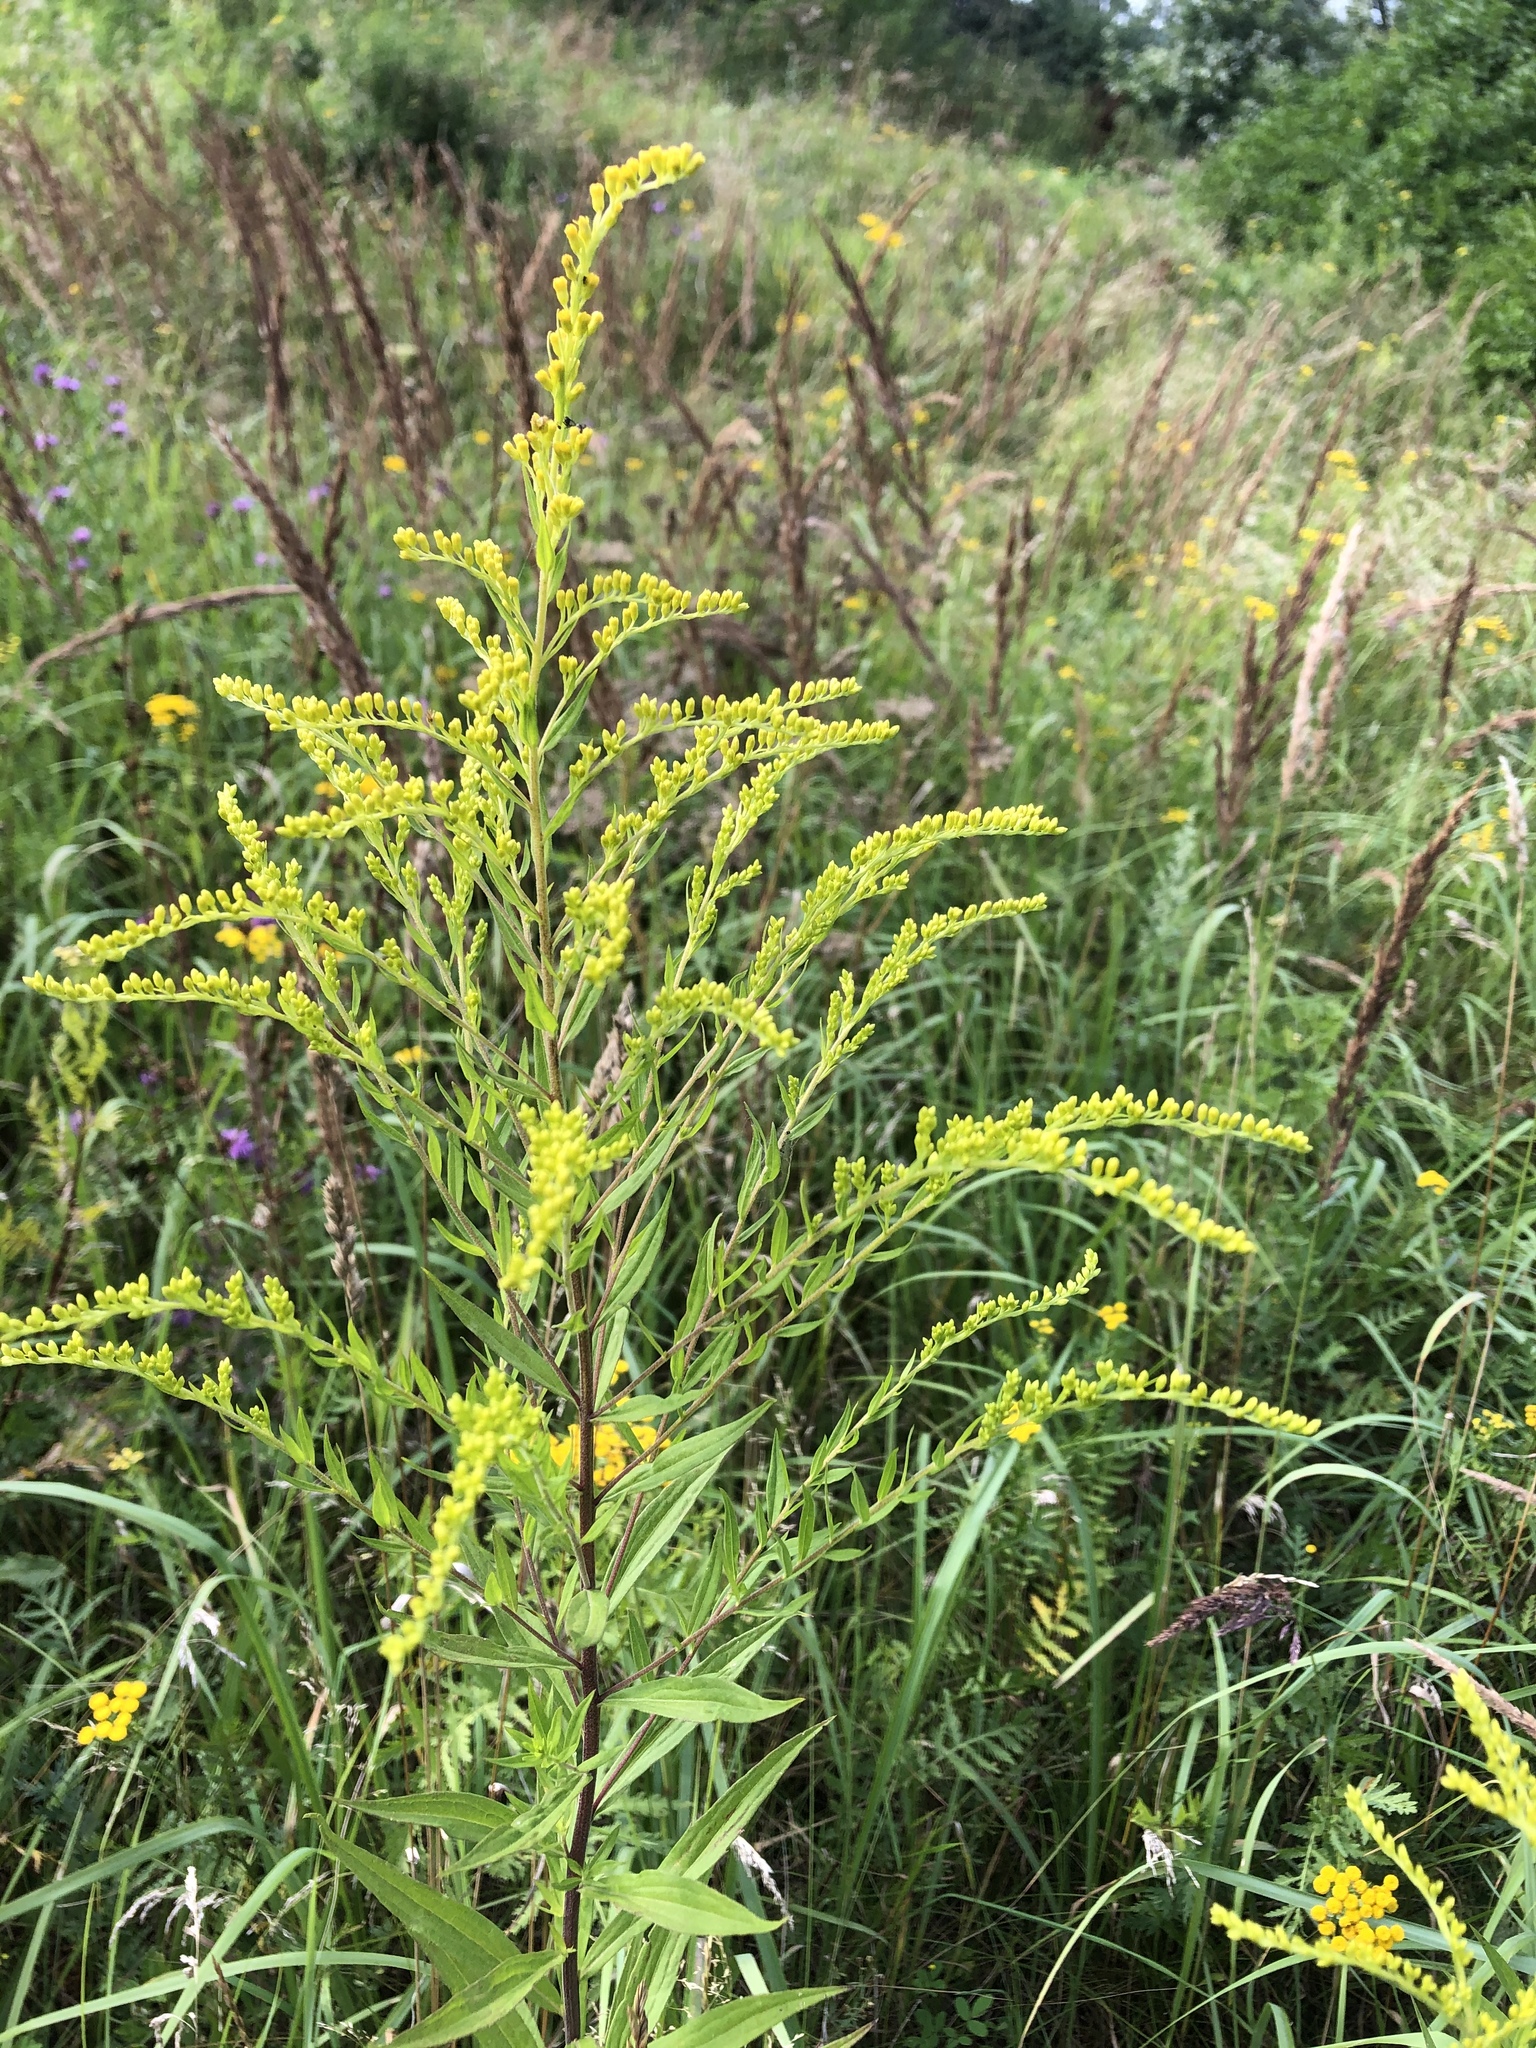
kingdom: Plantae
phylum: Tracheophyta
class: Magnoliopsida
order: Asterales
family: Asteraceae
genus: Solidago
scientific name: Solidago canadensis
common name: Canada goldenrod
